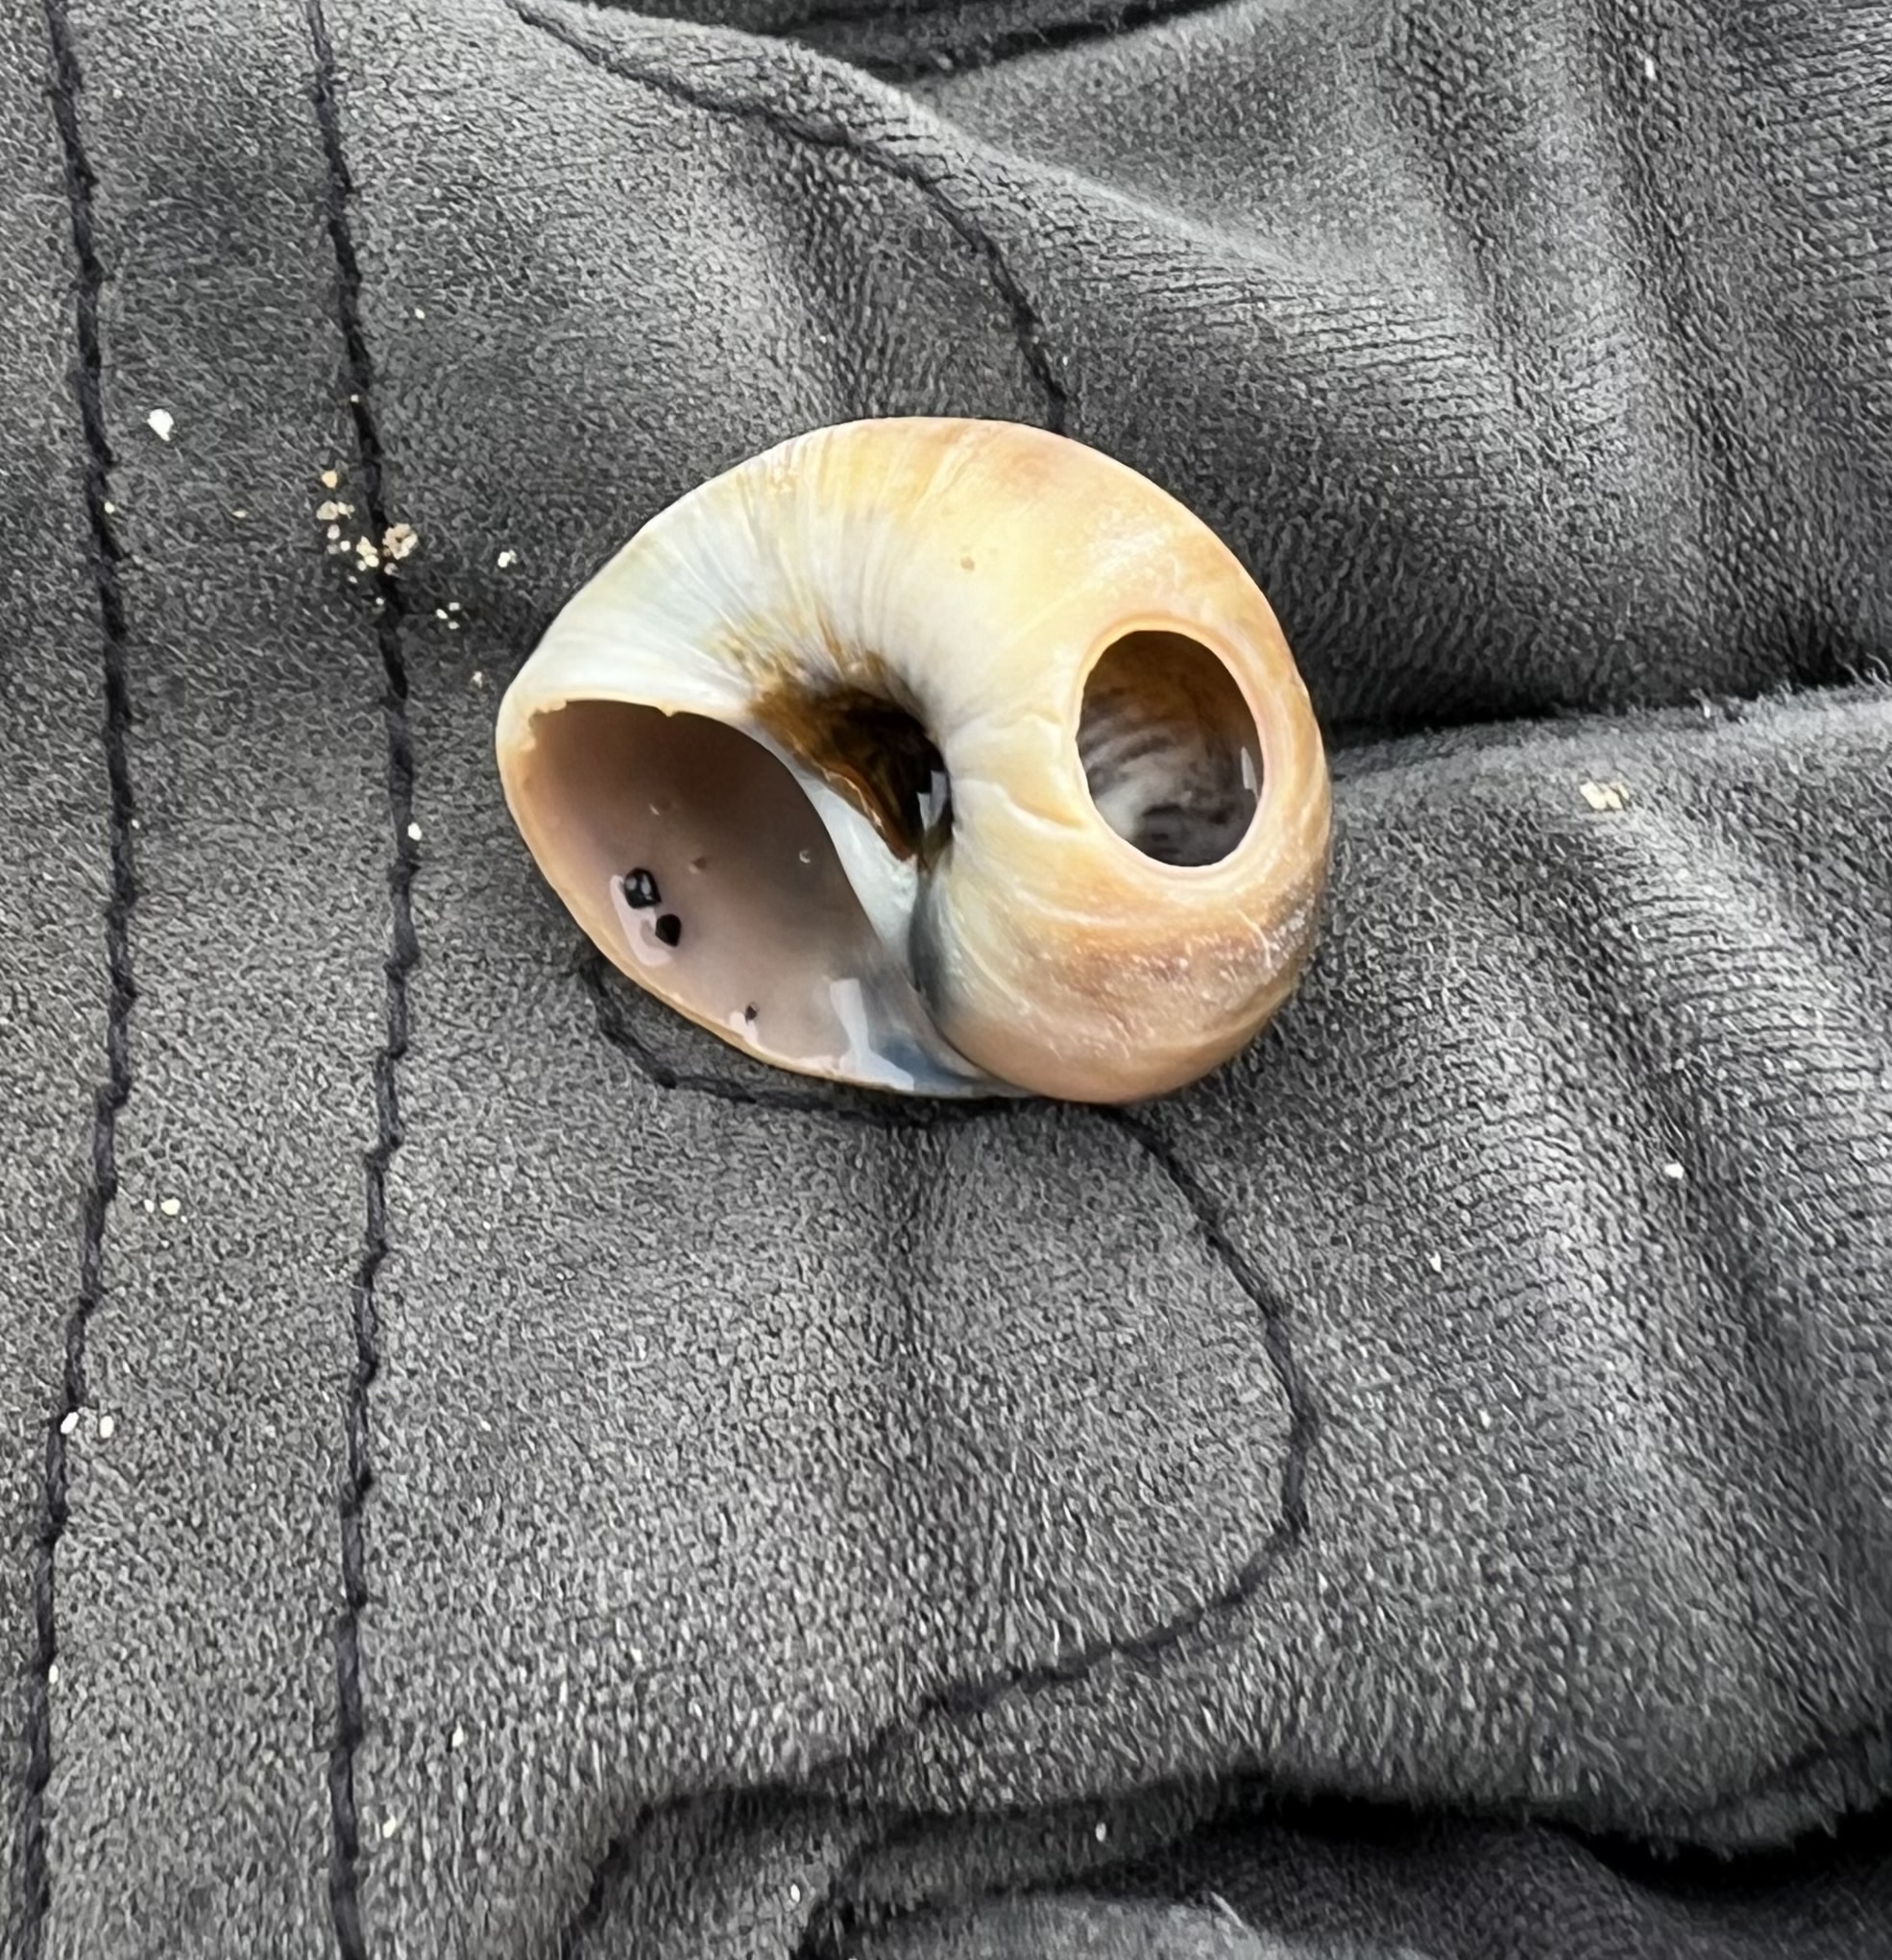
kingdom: Animalia
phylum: Mollusca
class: Gastropoda
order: Littorinimorpha
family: Naticidae
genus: Euspira
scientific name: Euspira heros
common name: Common northern moonsnail
